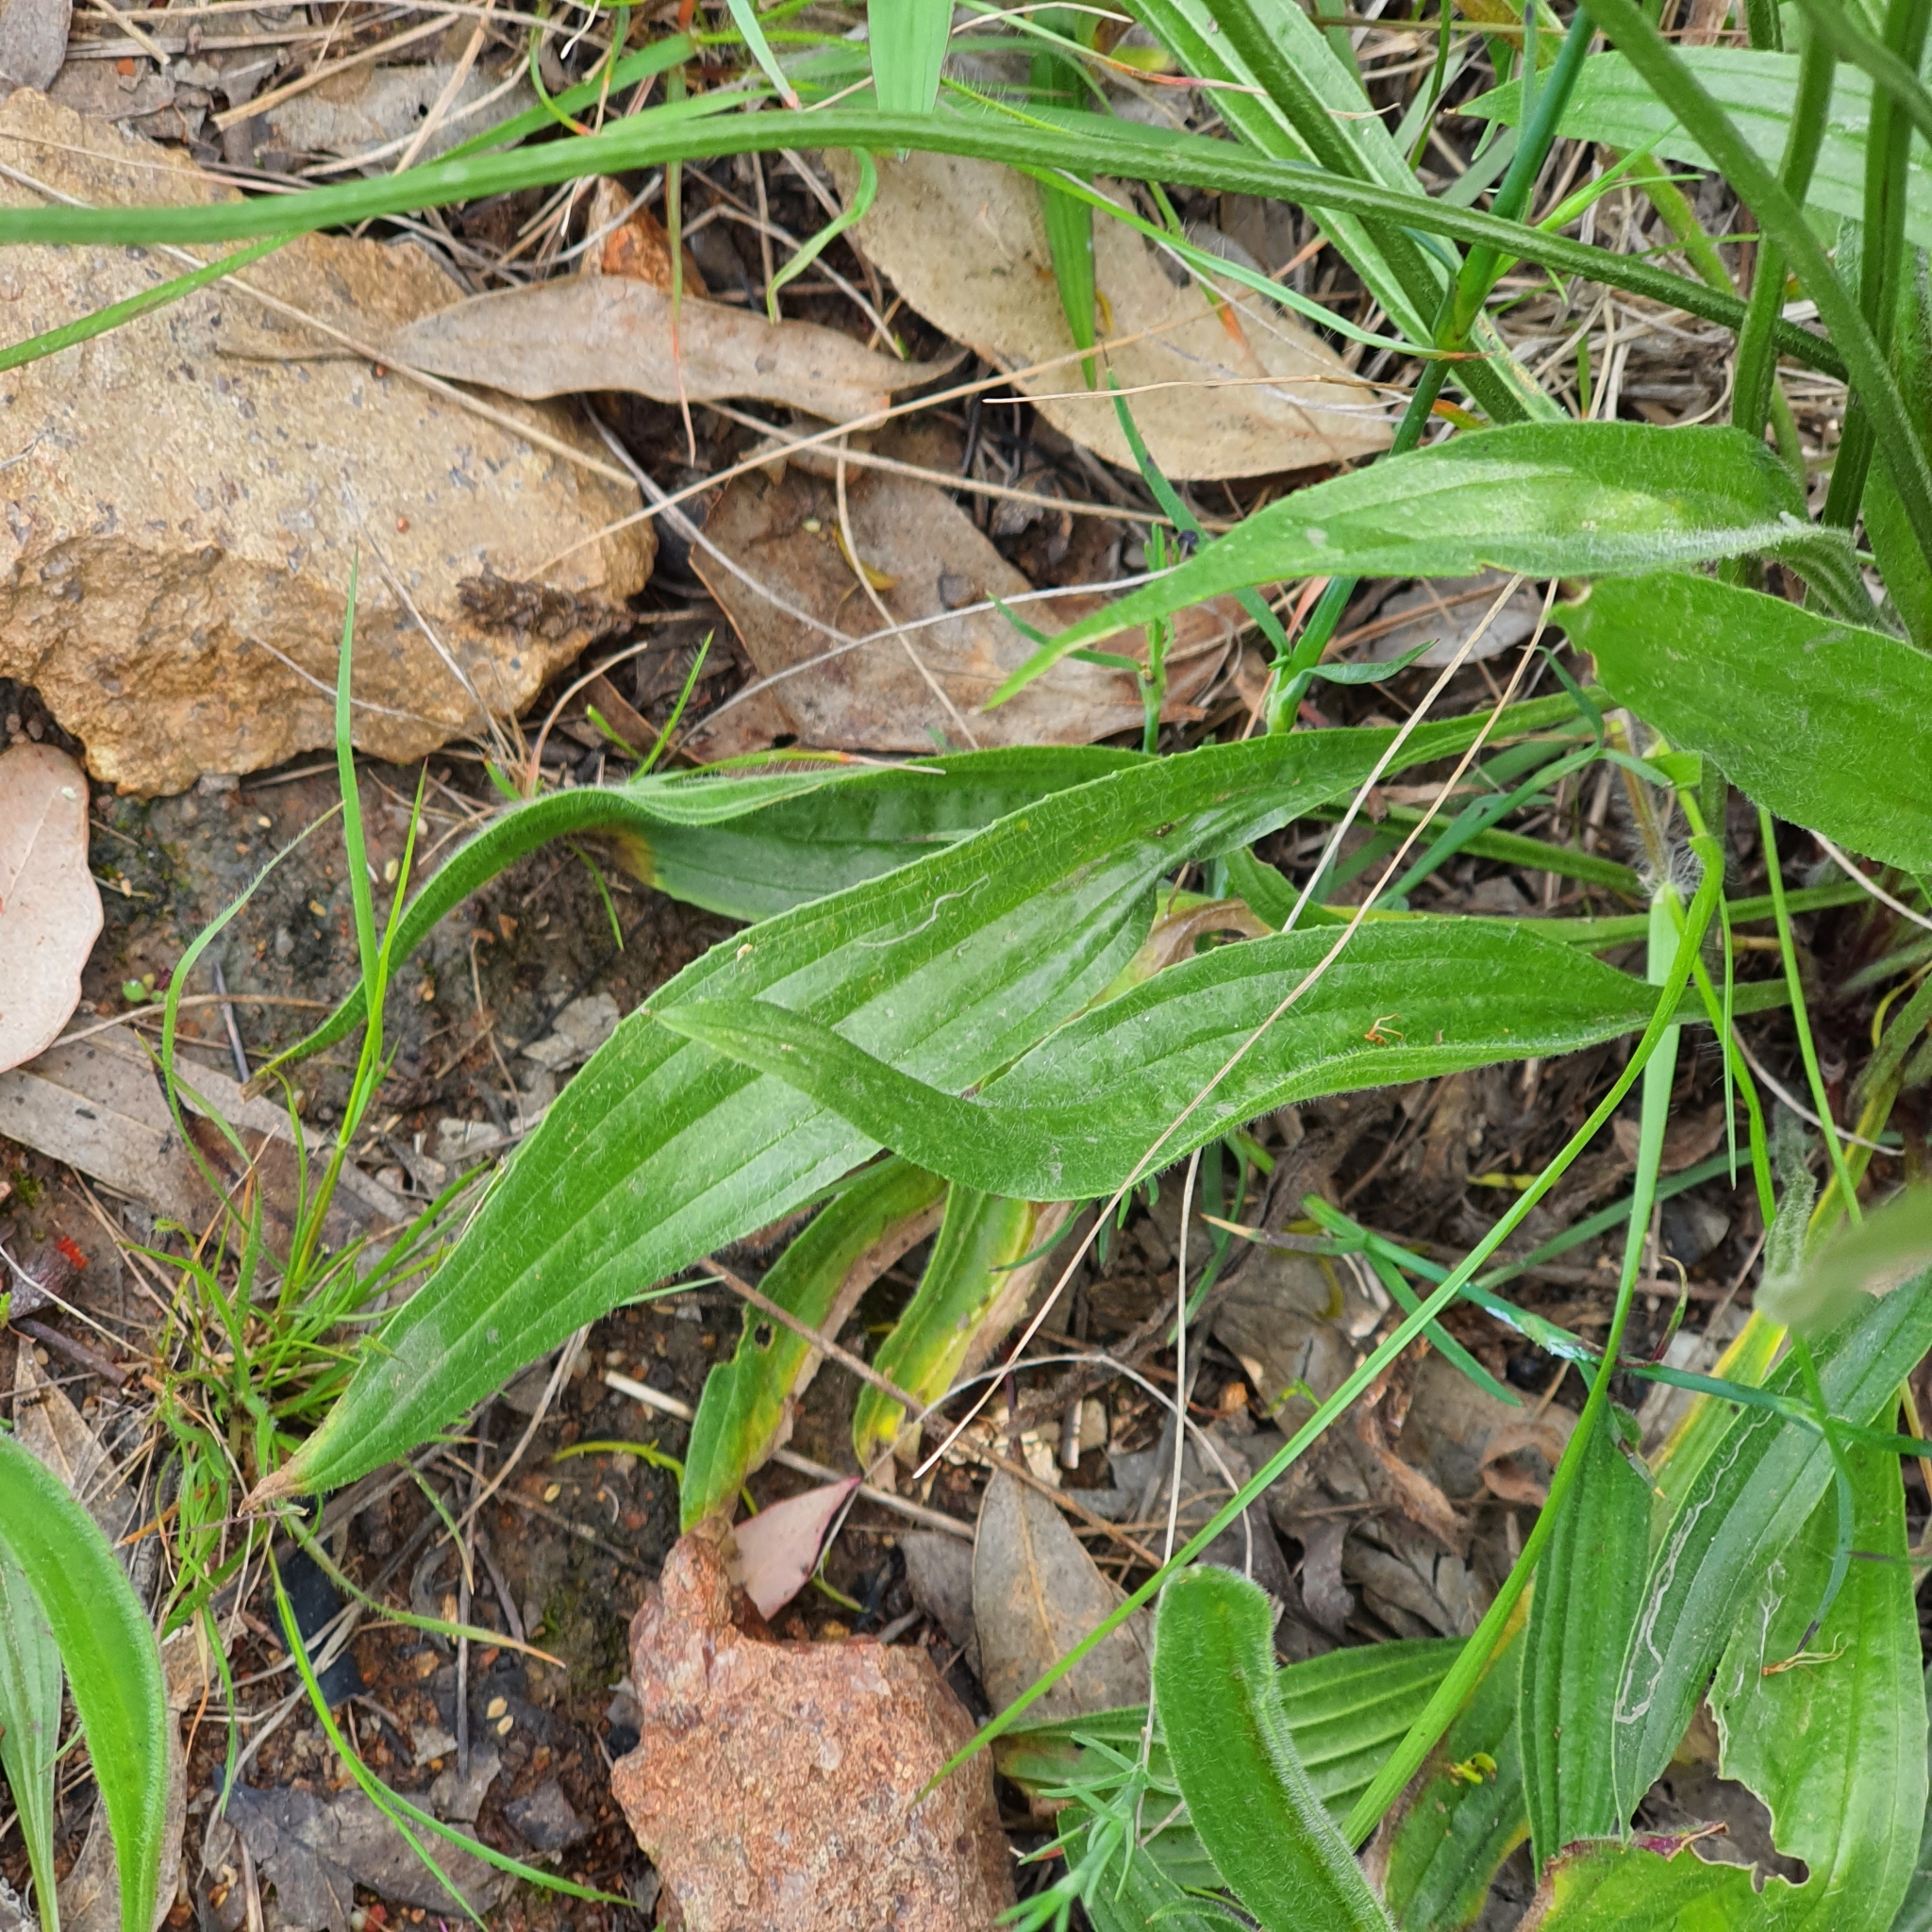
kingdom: Plantae
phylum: Tracheophyta
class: Magnoliopsida
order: Lamiales
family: Plantaginaceae
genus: Plantago
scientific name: Plantago lanceolata
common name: Ribwort plantain
